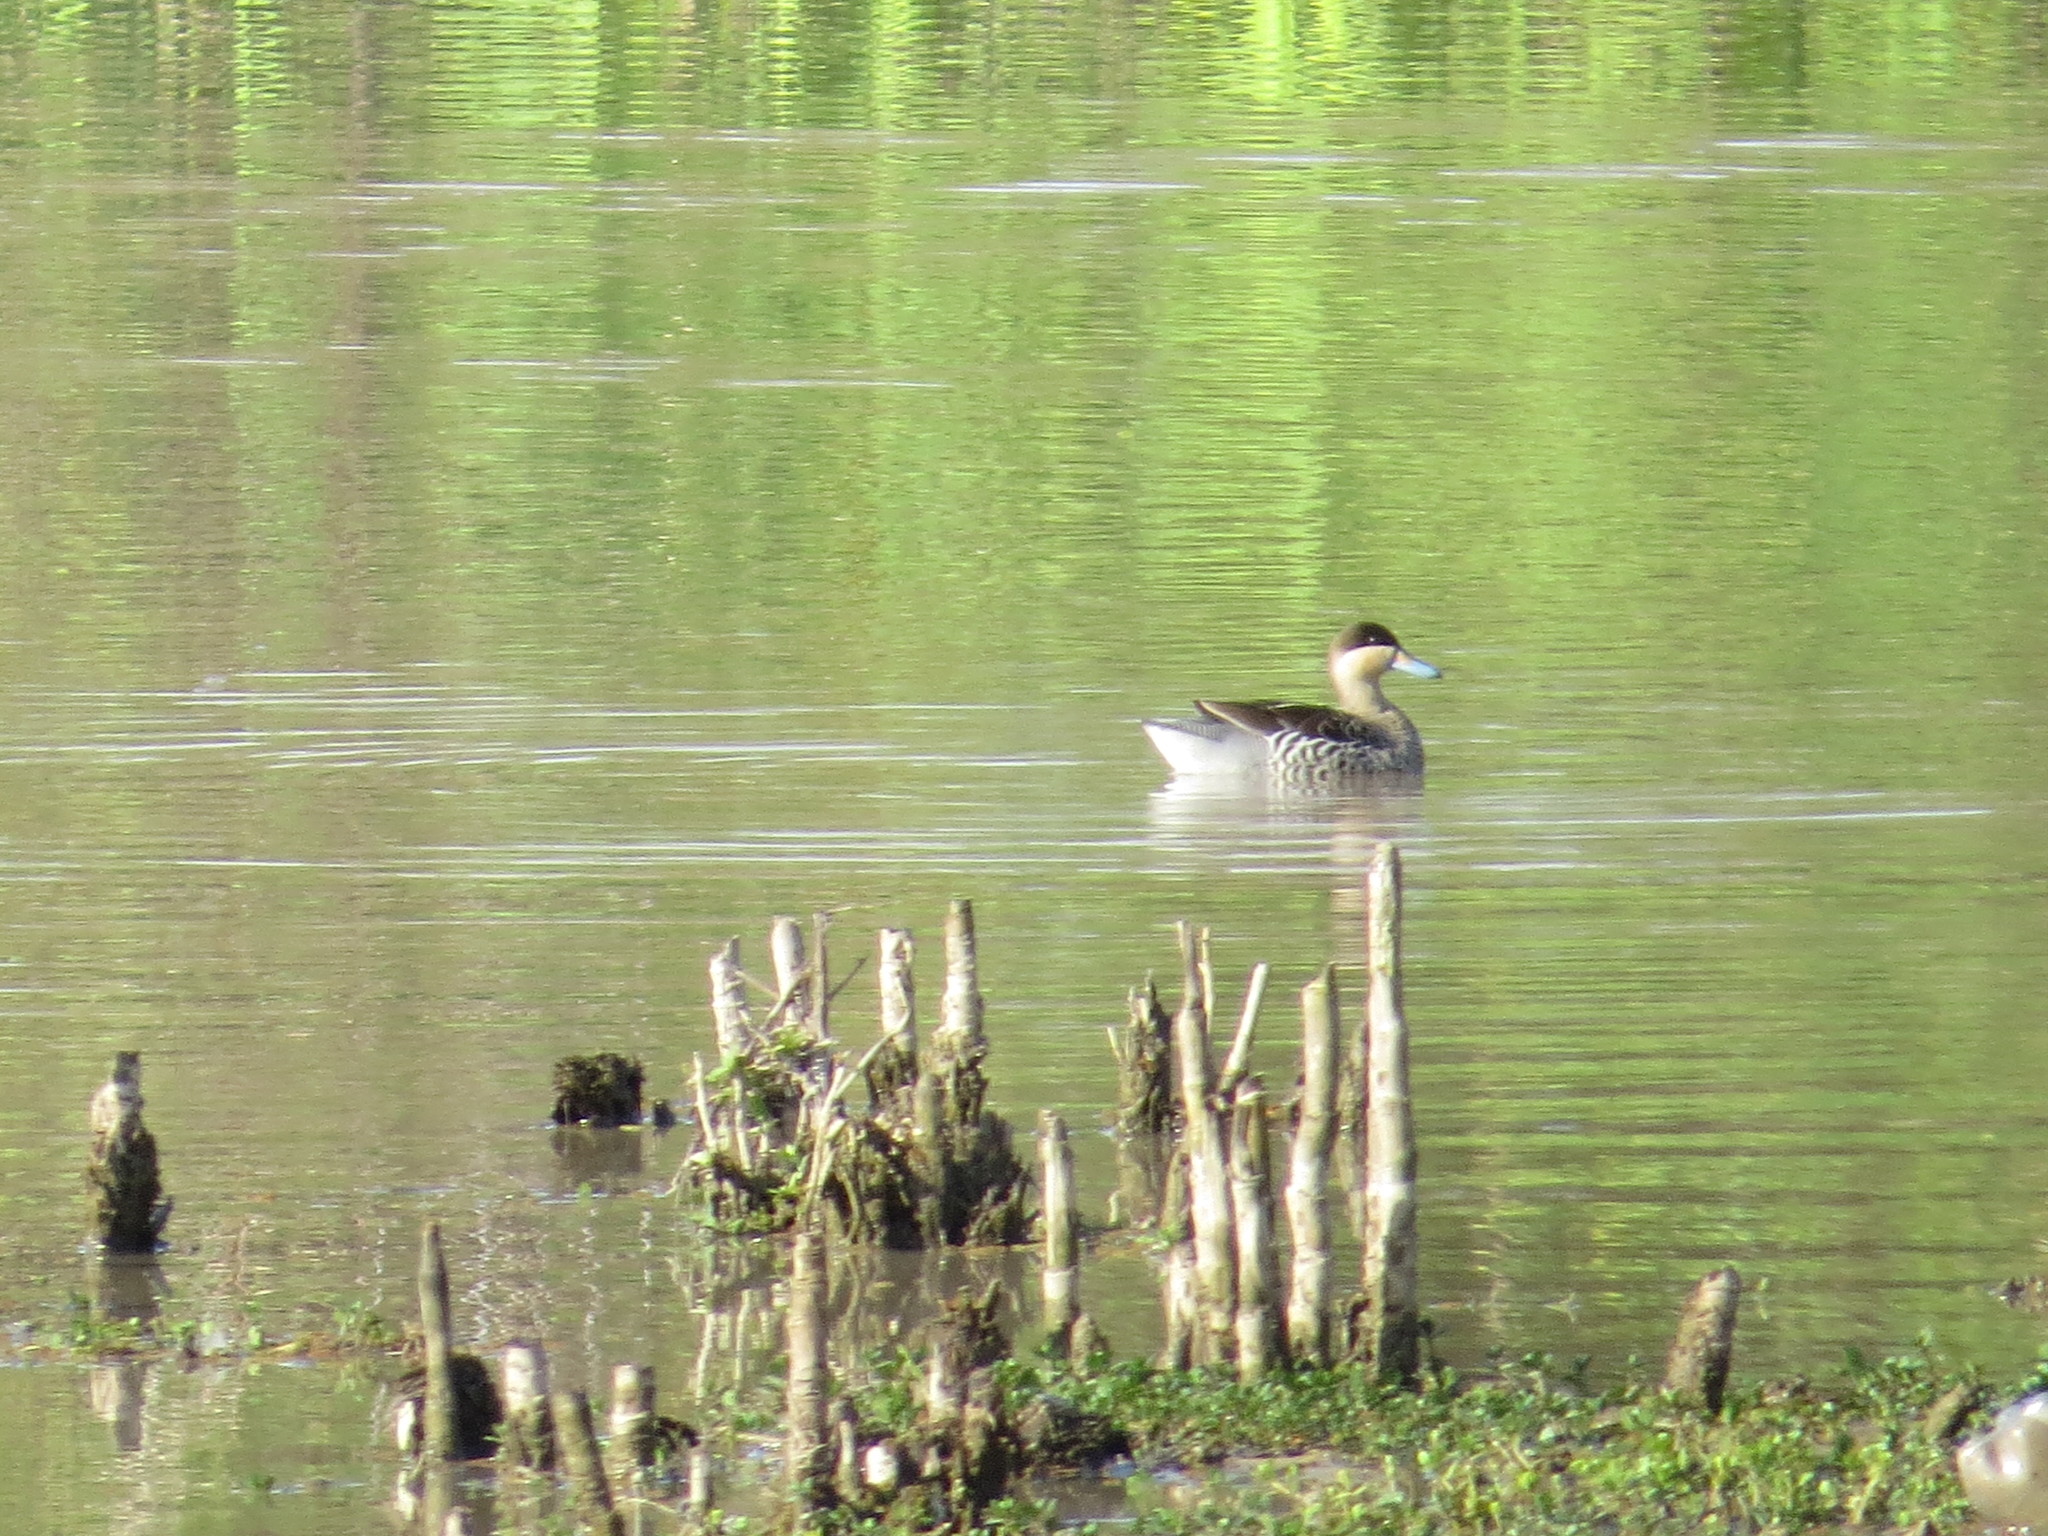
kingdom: Animalia
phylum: Chordata
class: Aves
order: Anseriformes
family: Anatidae
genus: Spatula
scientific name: Spatula versicolor
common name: Silver teal
